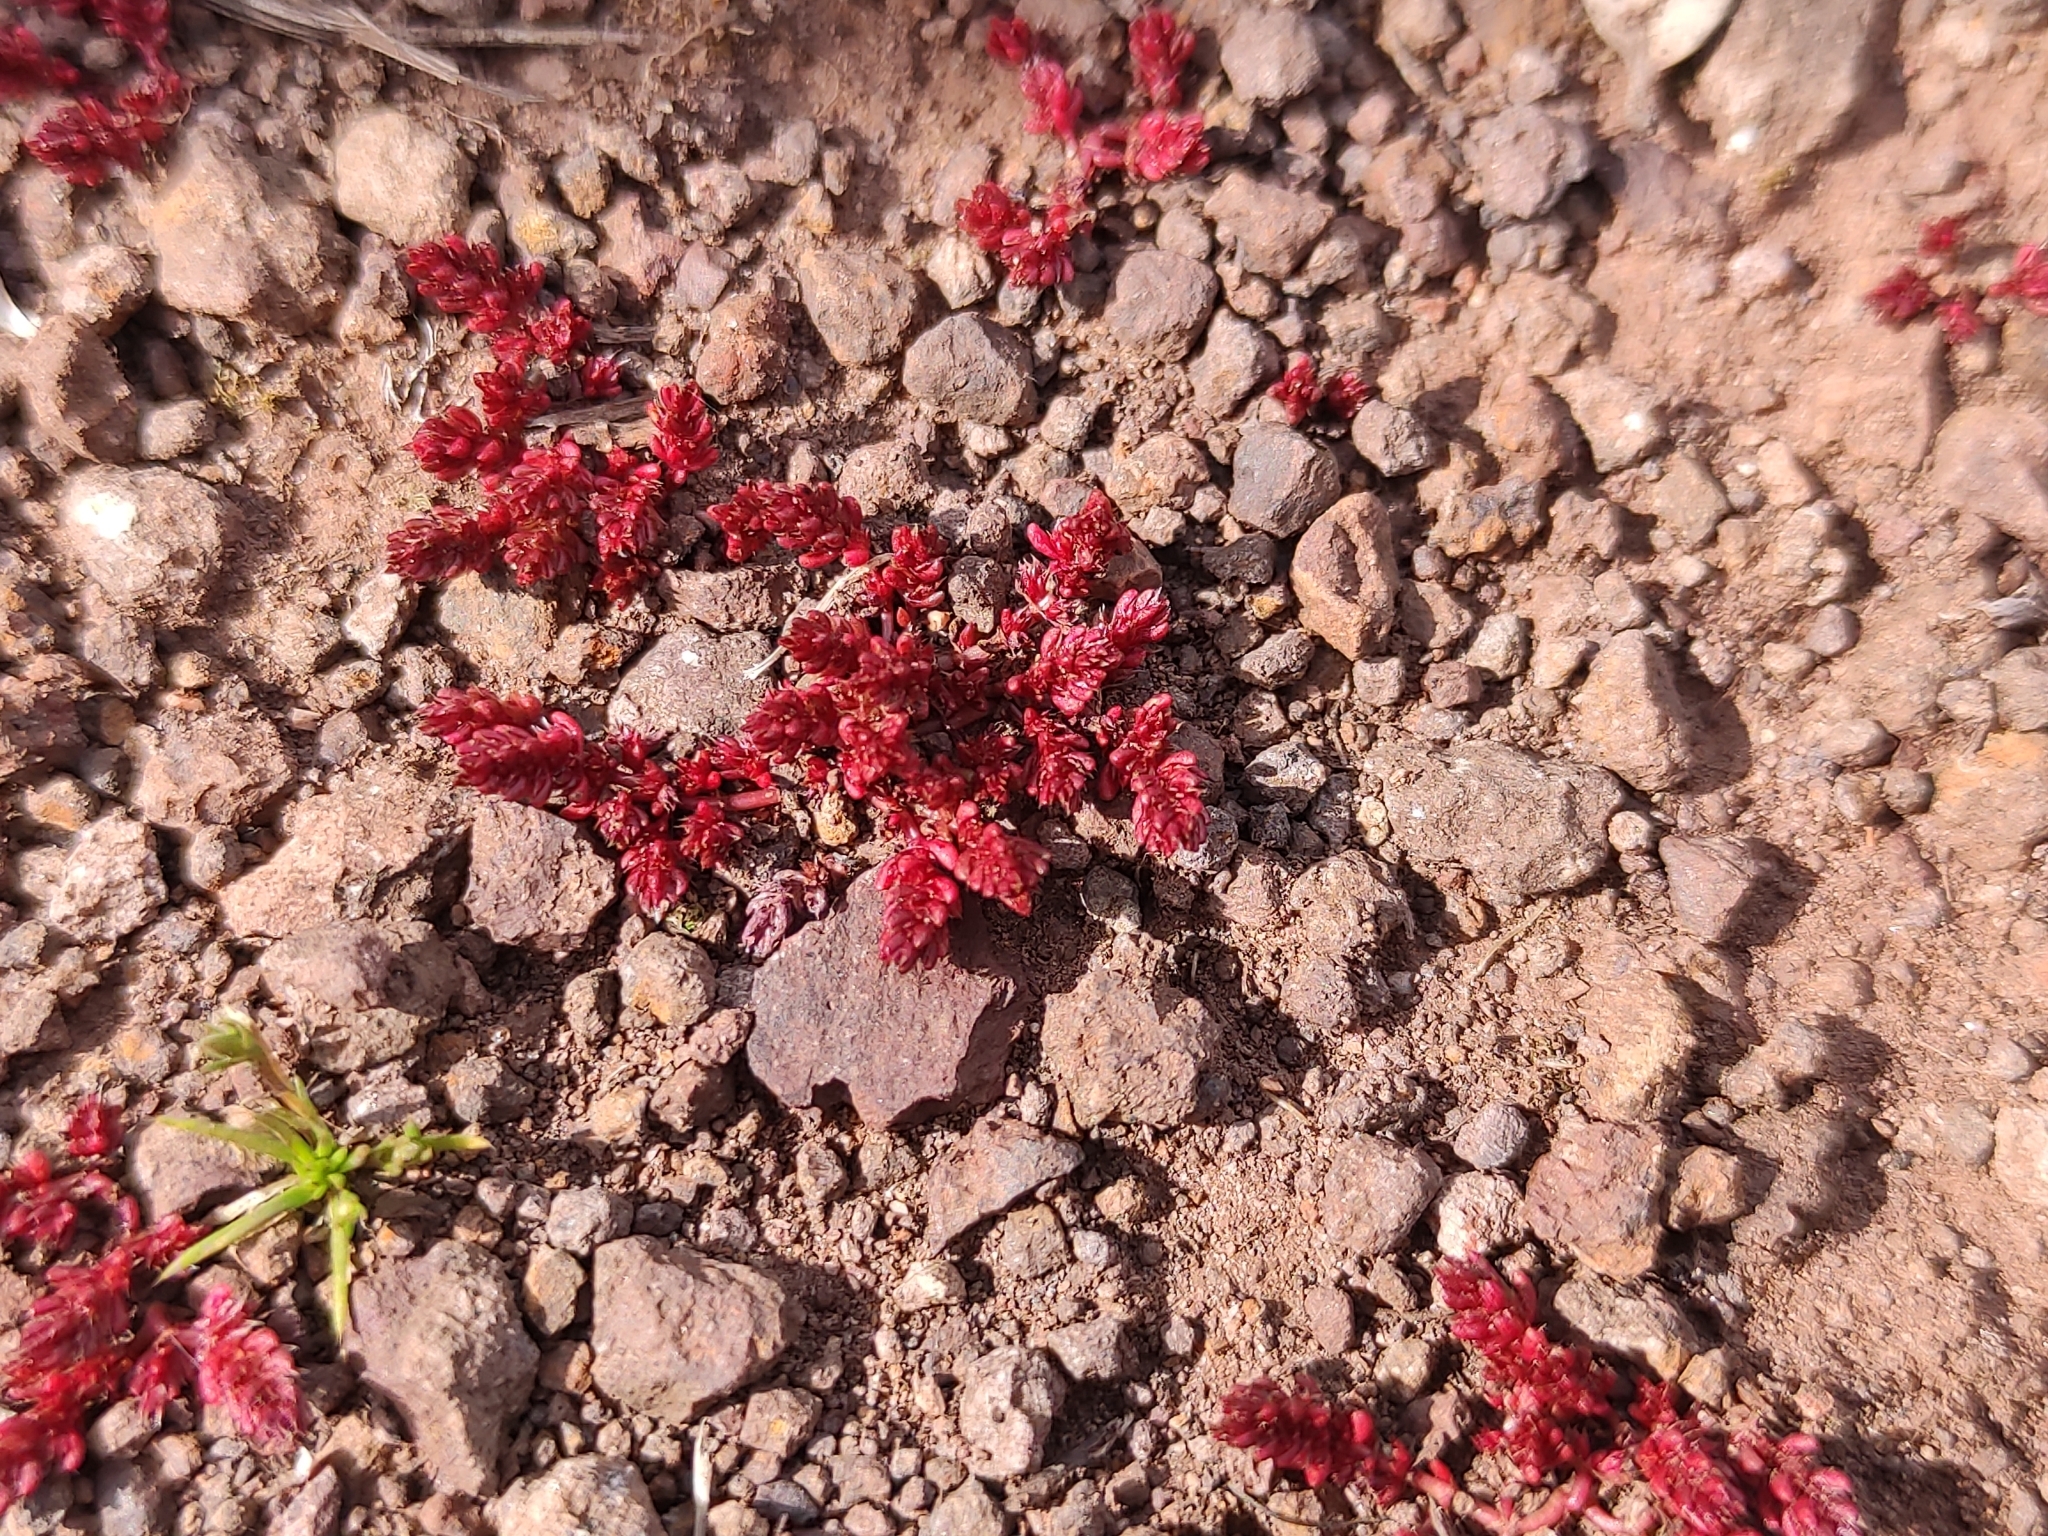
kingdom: Plantae
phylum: Tracheophyta
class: Magnoliopsida
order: Saxifragales
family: Crassulaceae
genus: Crassula
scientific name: Crassula tillaea
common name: Mossy stonecrop
